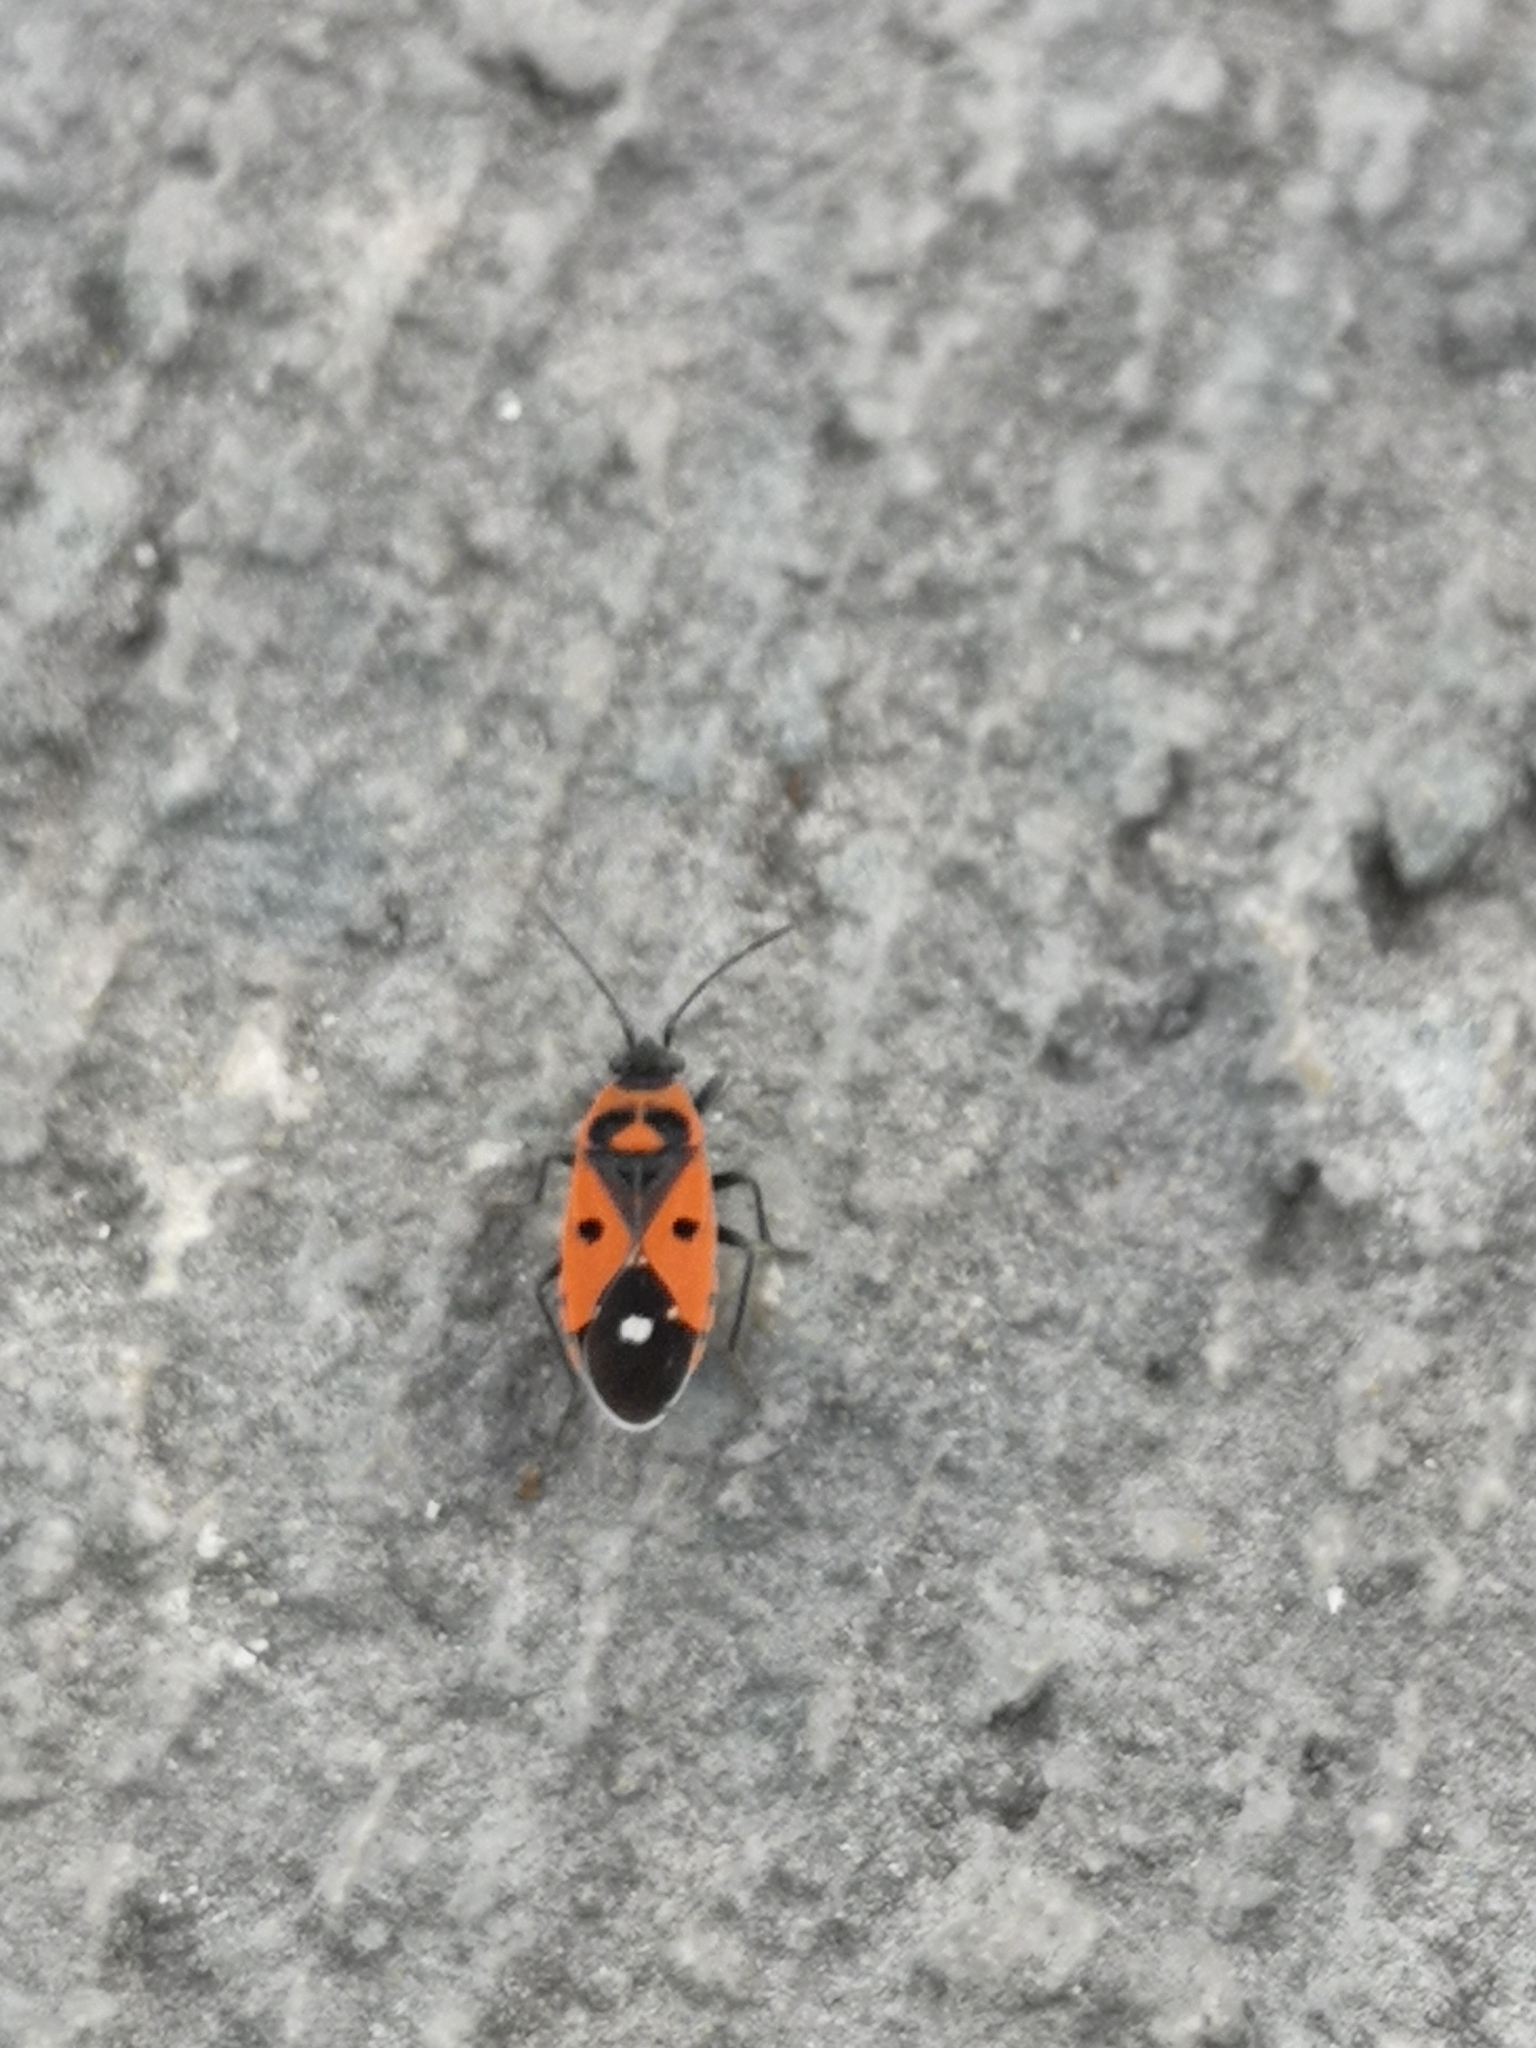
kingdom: Animalia
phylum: Arthropoda
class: Insecta
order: Hemiptera
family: Lygaeidae
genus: Melanocoryphus
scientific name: Melanocoryphus albomaculatus
